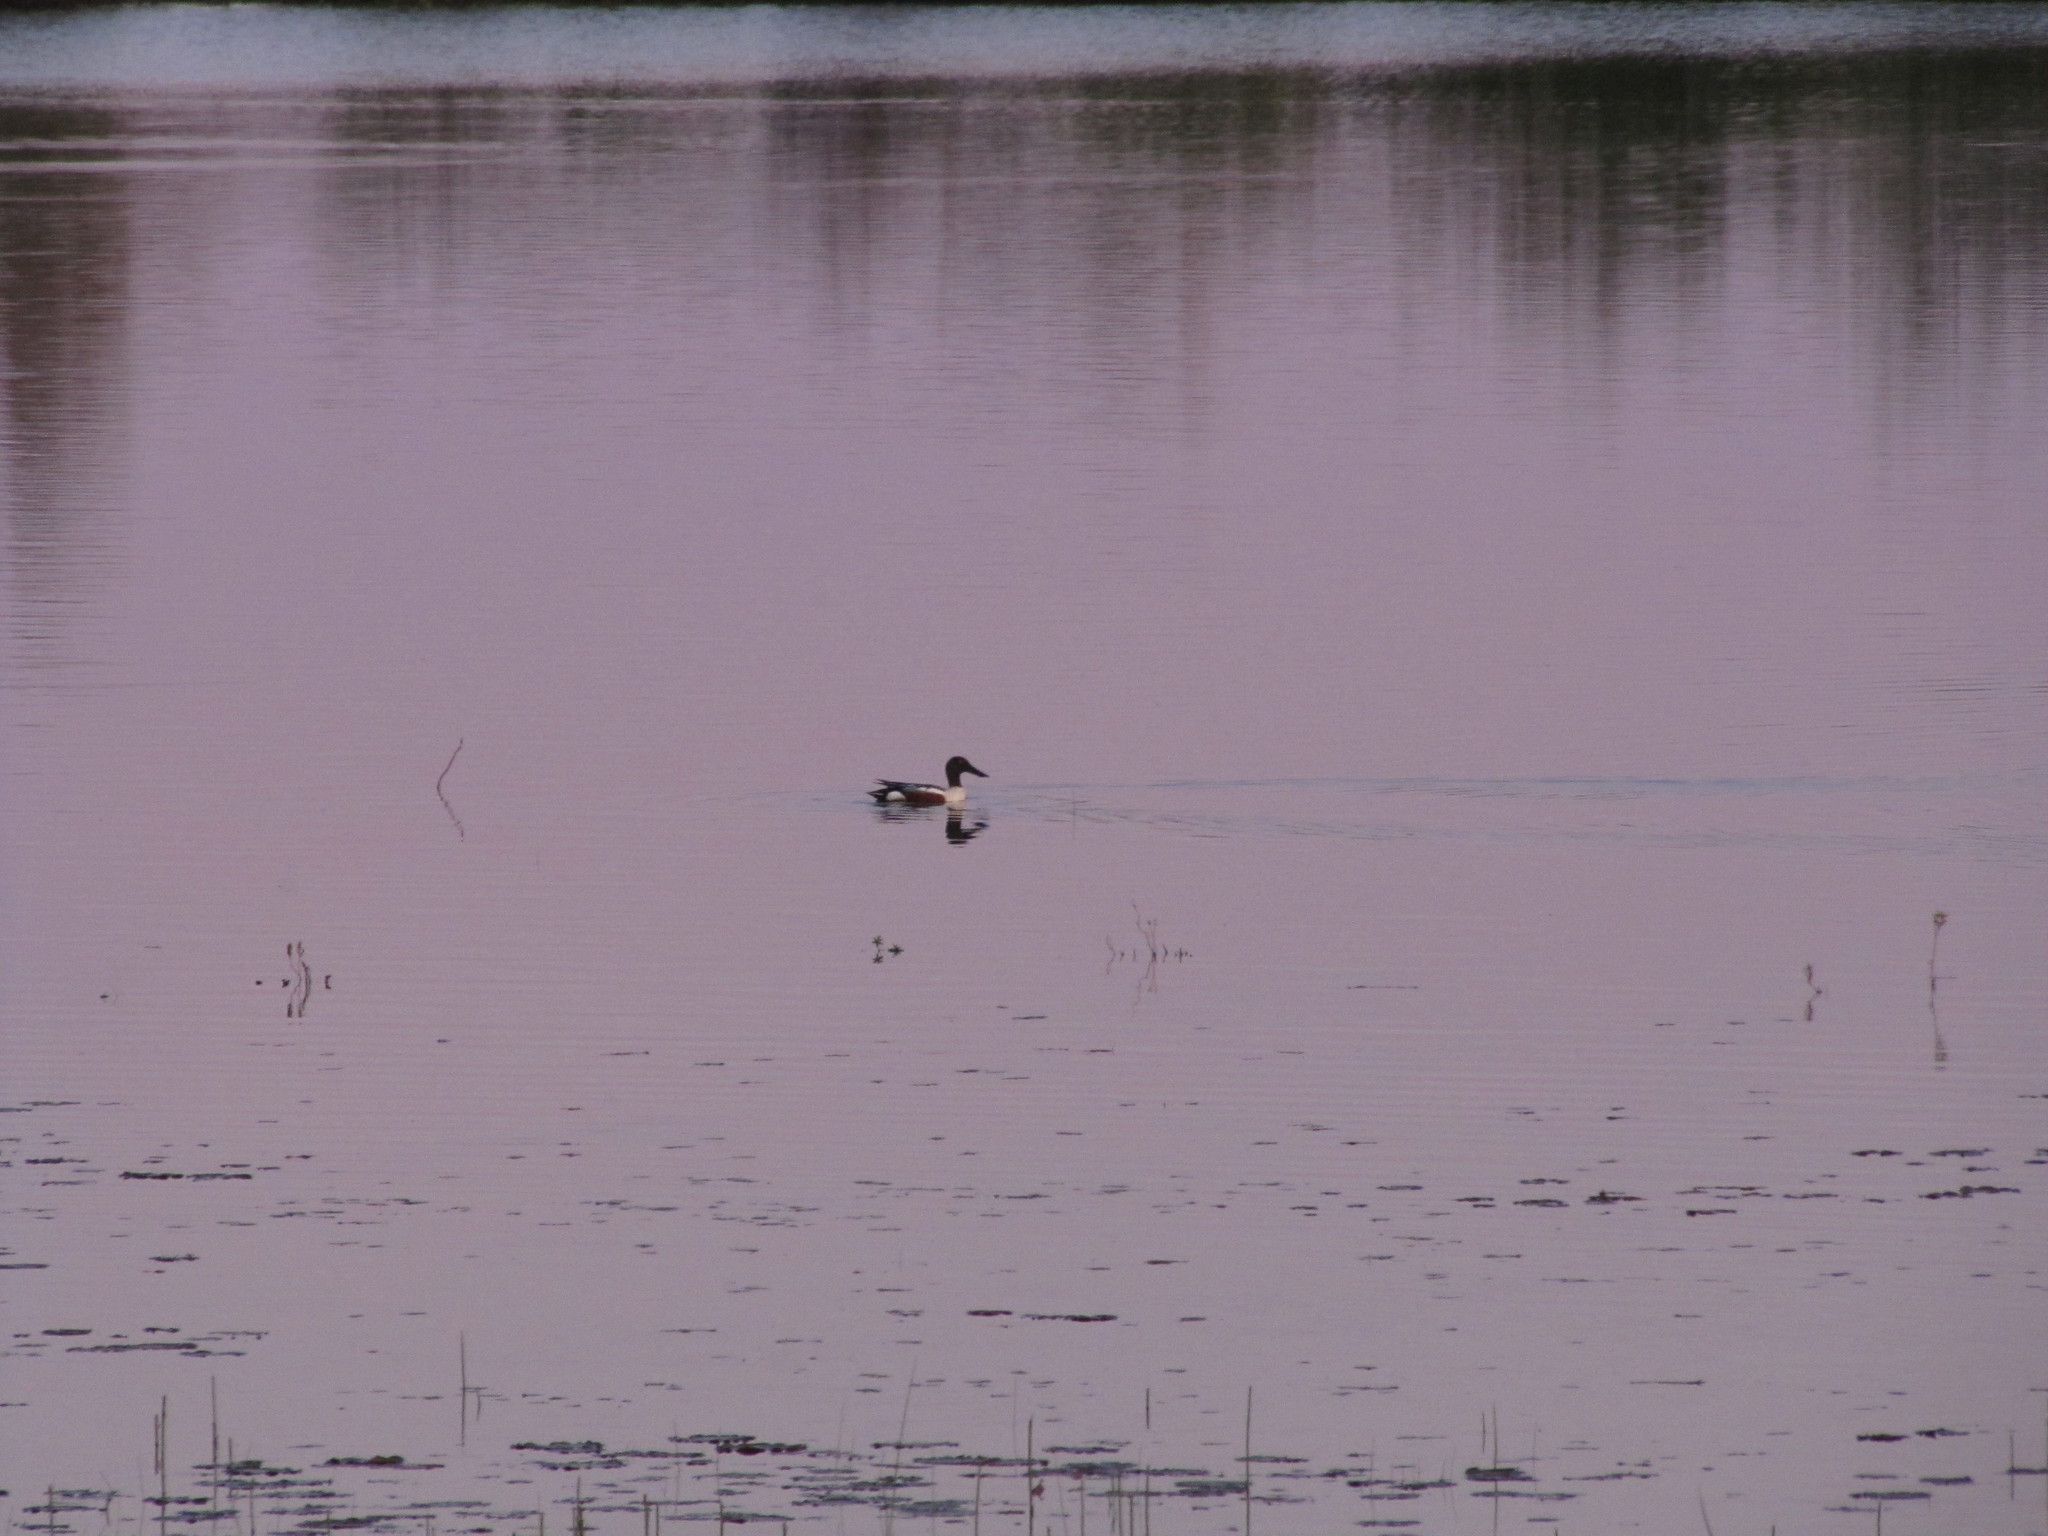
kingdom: Animalia
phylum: Chordata
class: Aves
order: Anseriformes
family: Anatidae
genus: Spatula
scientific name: Spatula clypeata
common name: Northern shoveler
